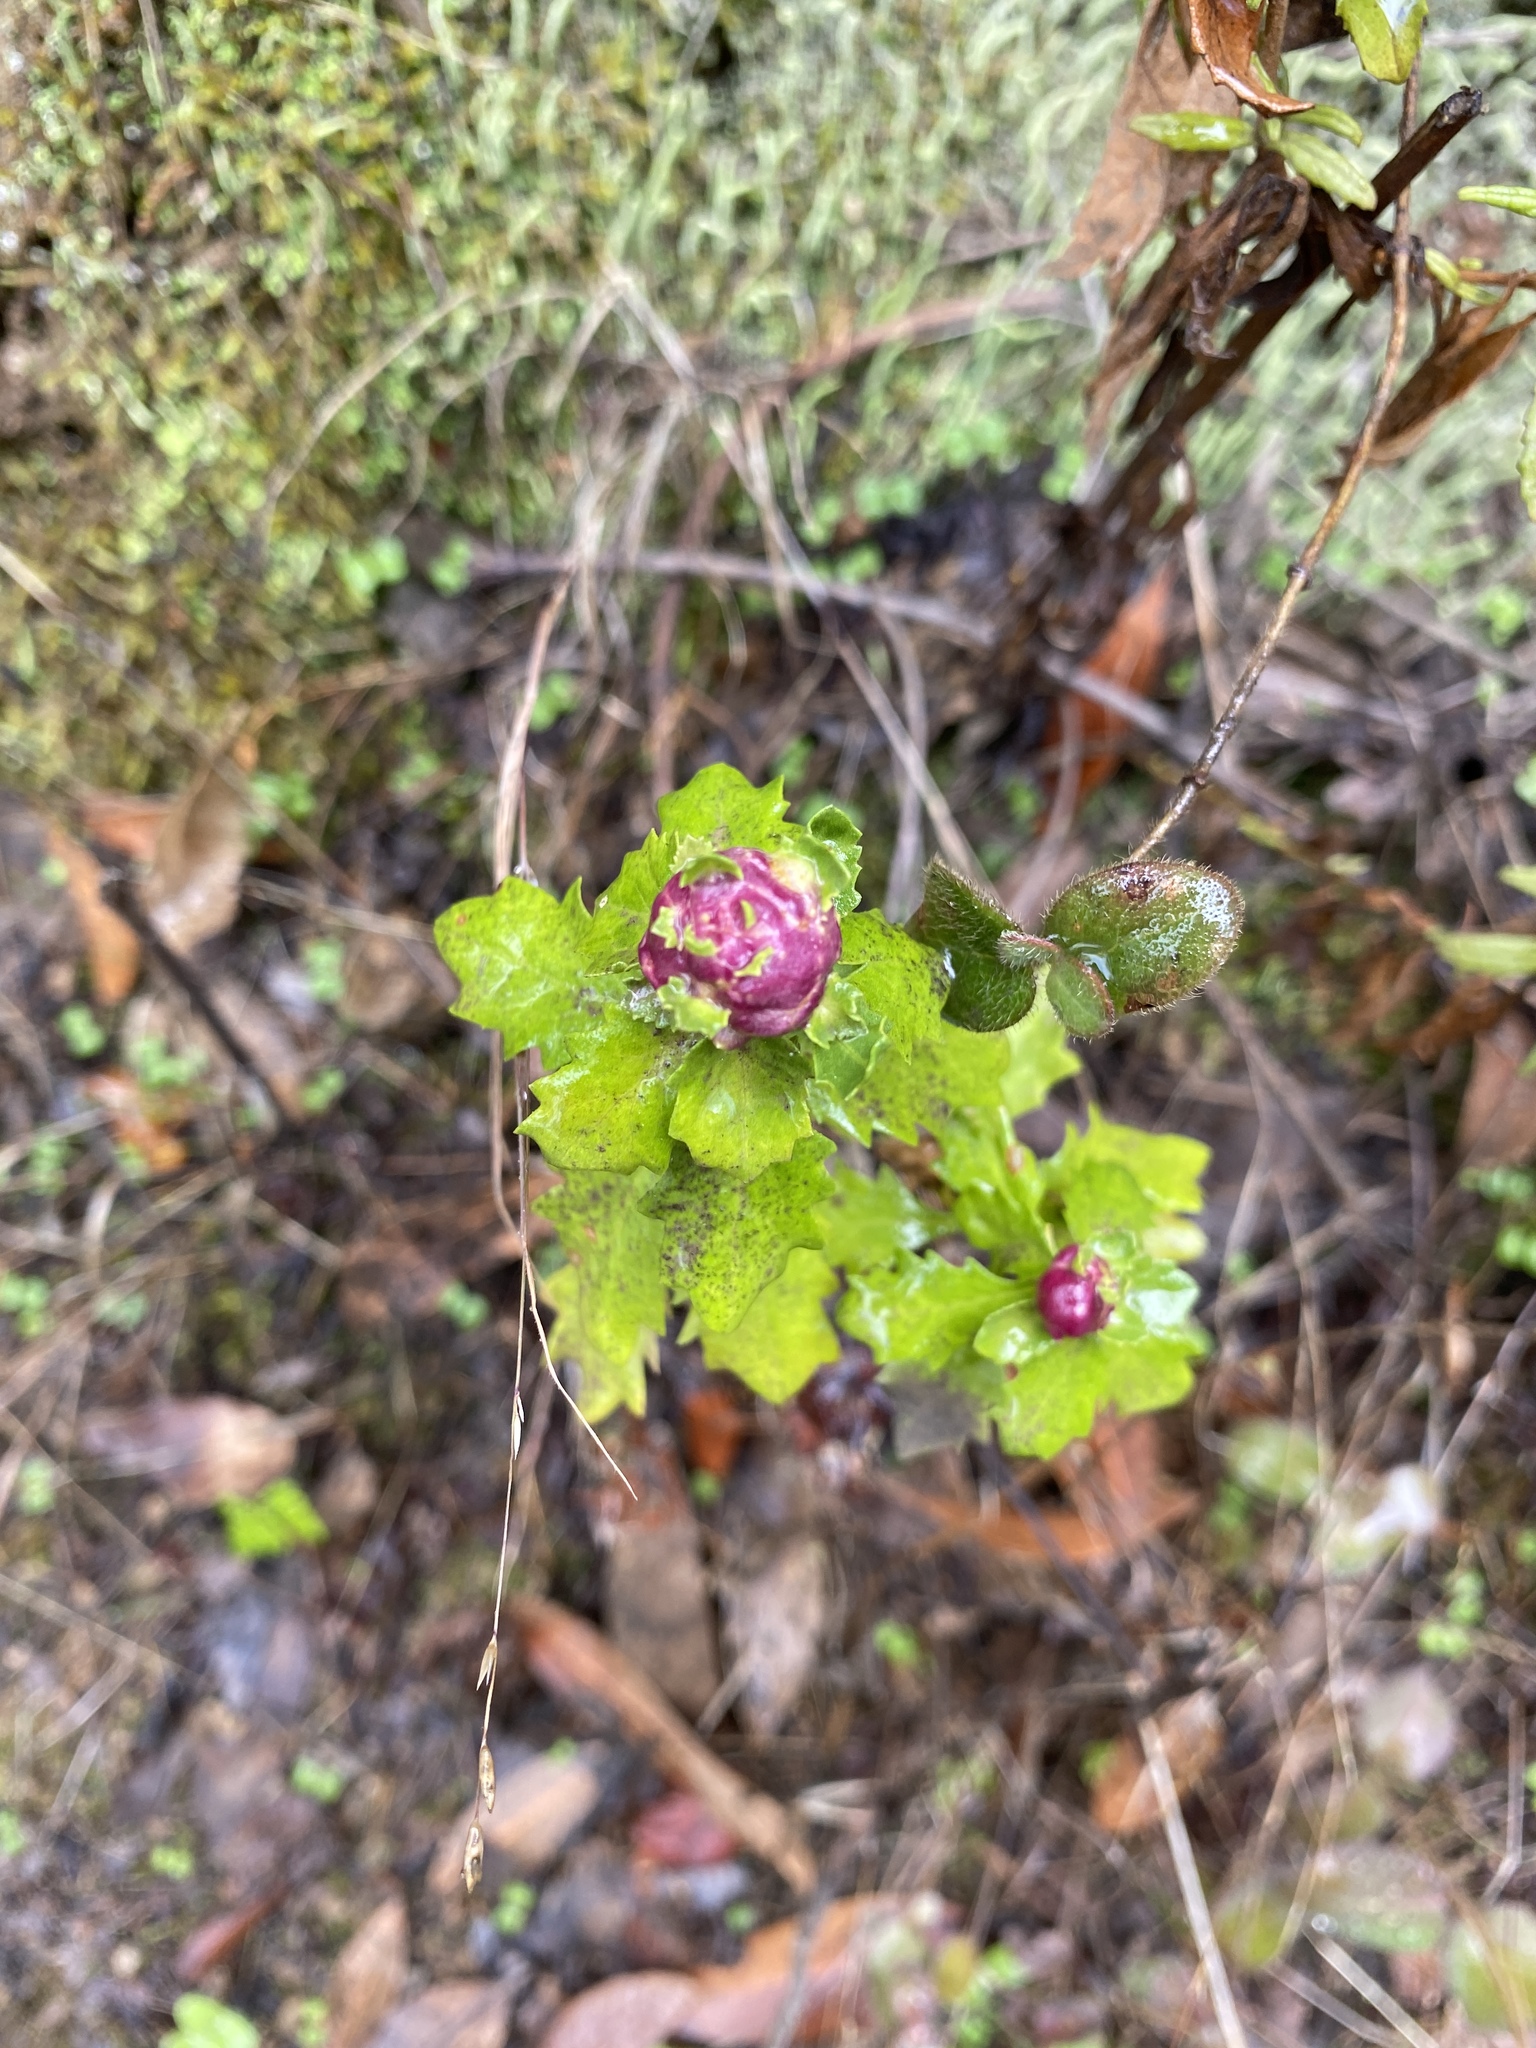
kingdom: Animalia
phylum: Arthropoda
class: Insecta
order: Diptera
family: Cecidomyiidae
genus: Rhopalomyia
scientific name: Rhopalomyia californica
